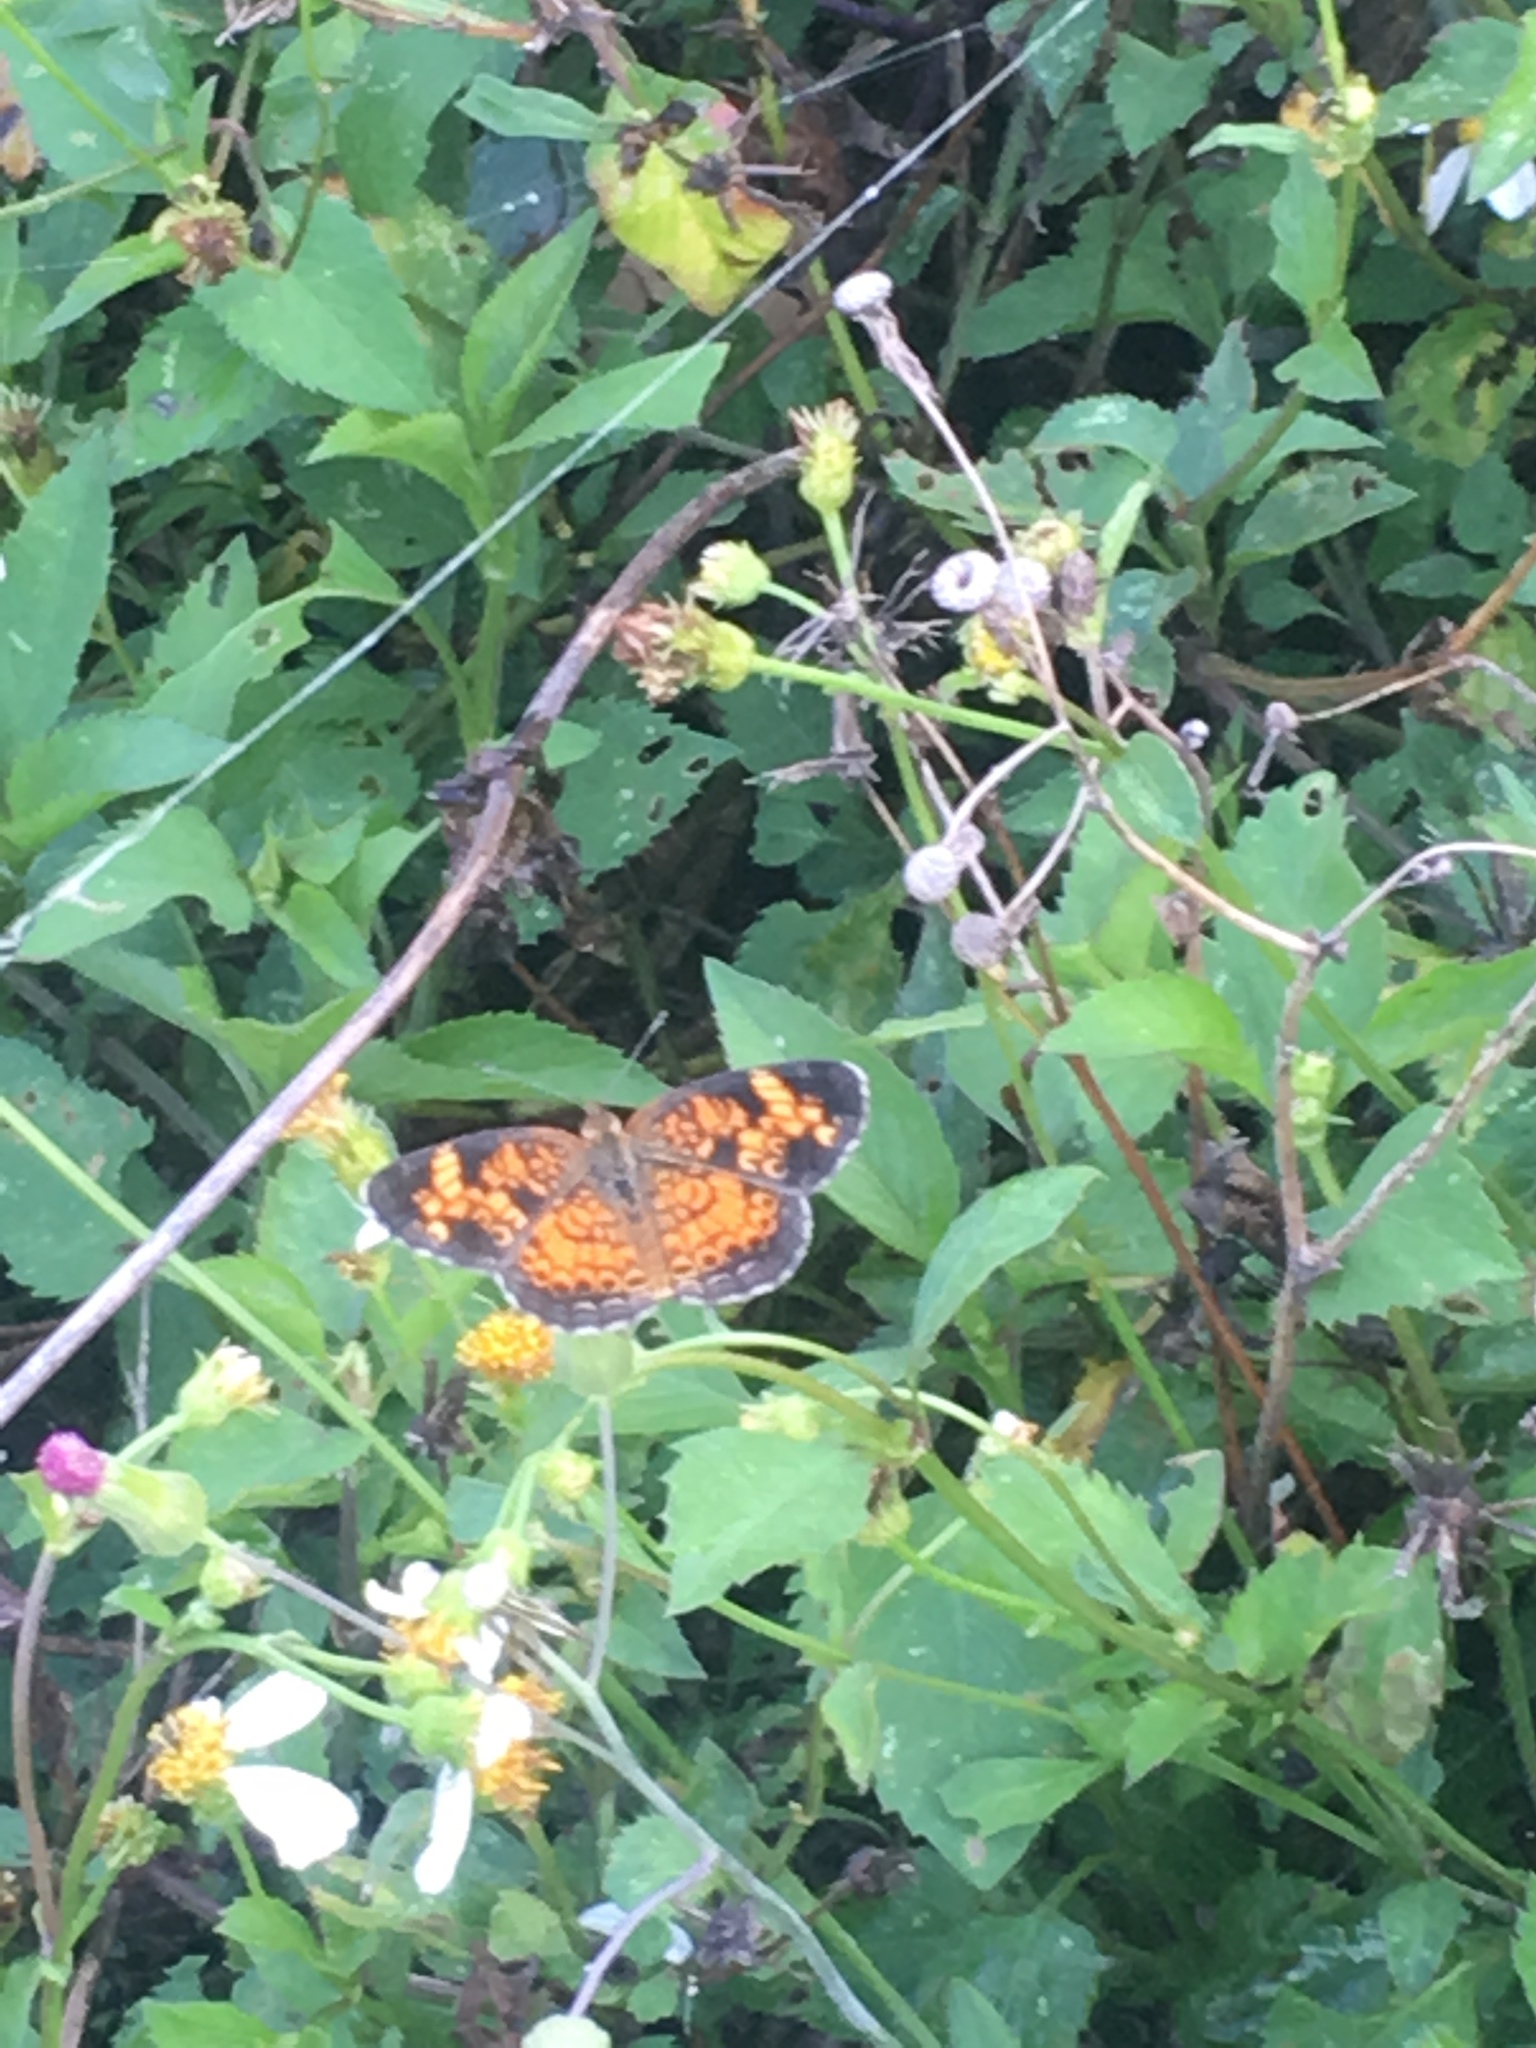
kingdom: Animalia
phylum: Arthropoda
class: Insecta
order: Lepidoptera
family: Nymphalidae
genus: Phyciodes
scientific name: Phyciodes tharos
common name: Pearl crescent
